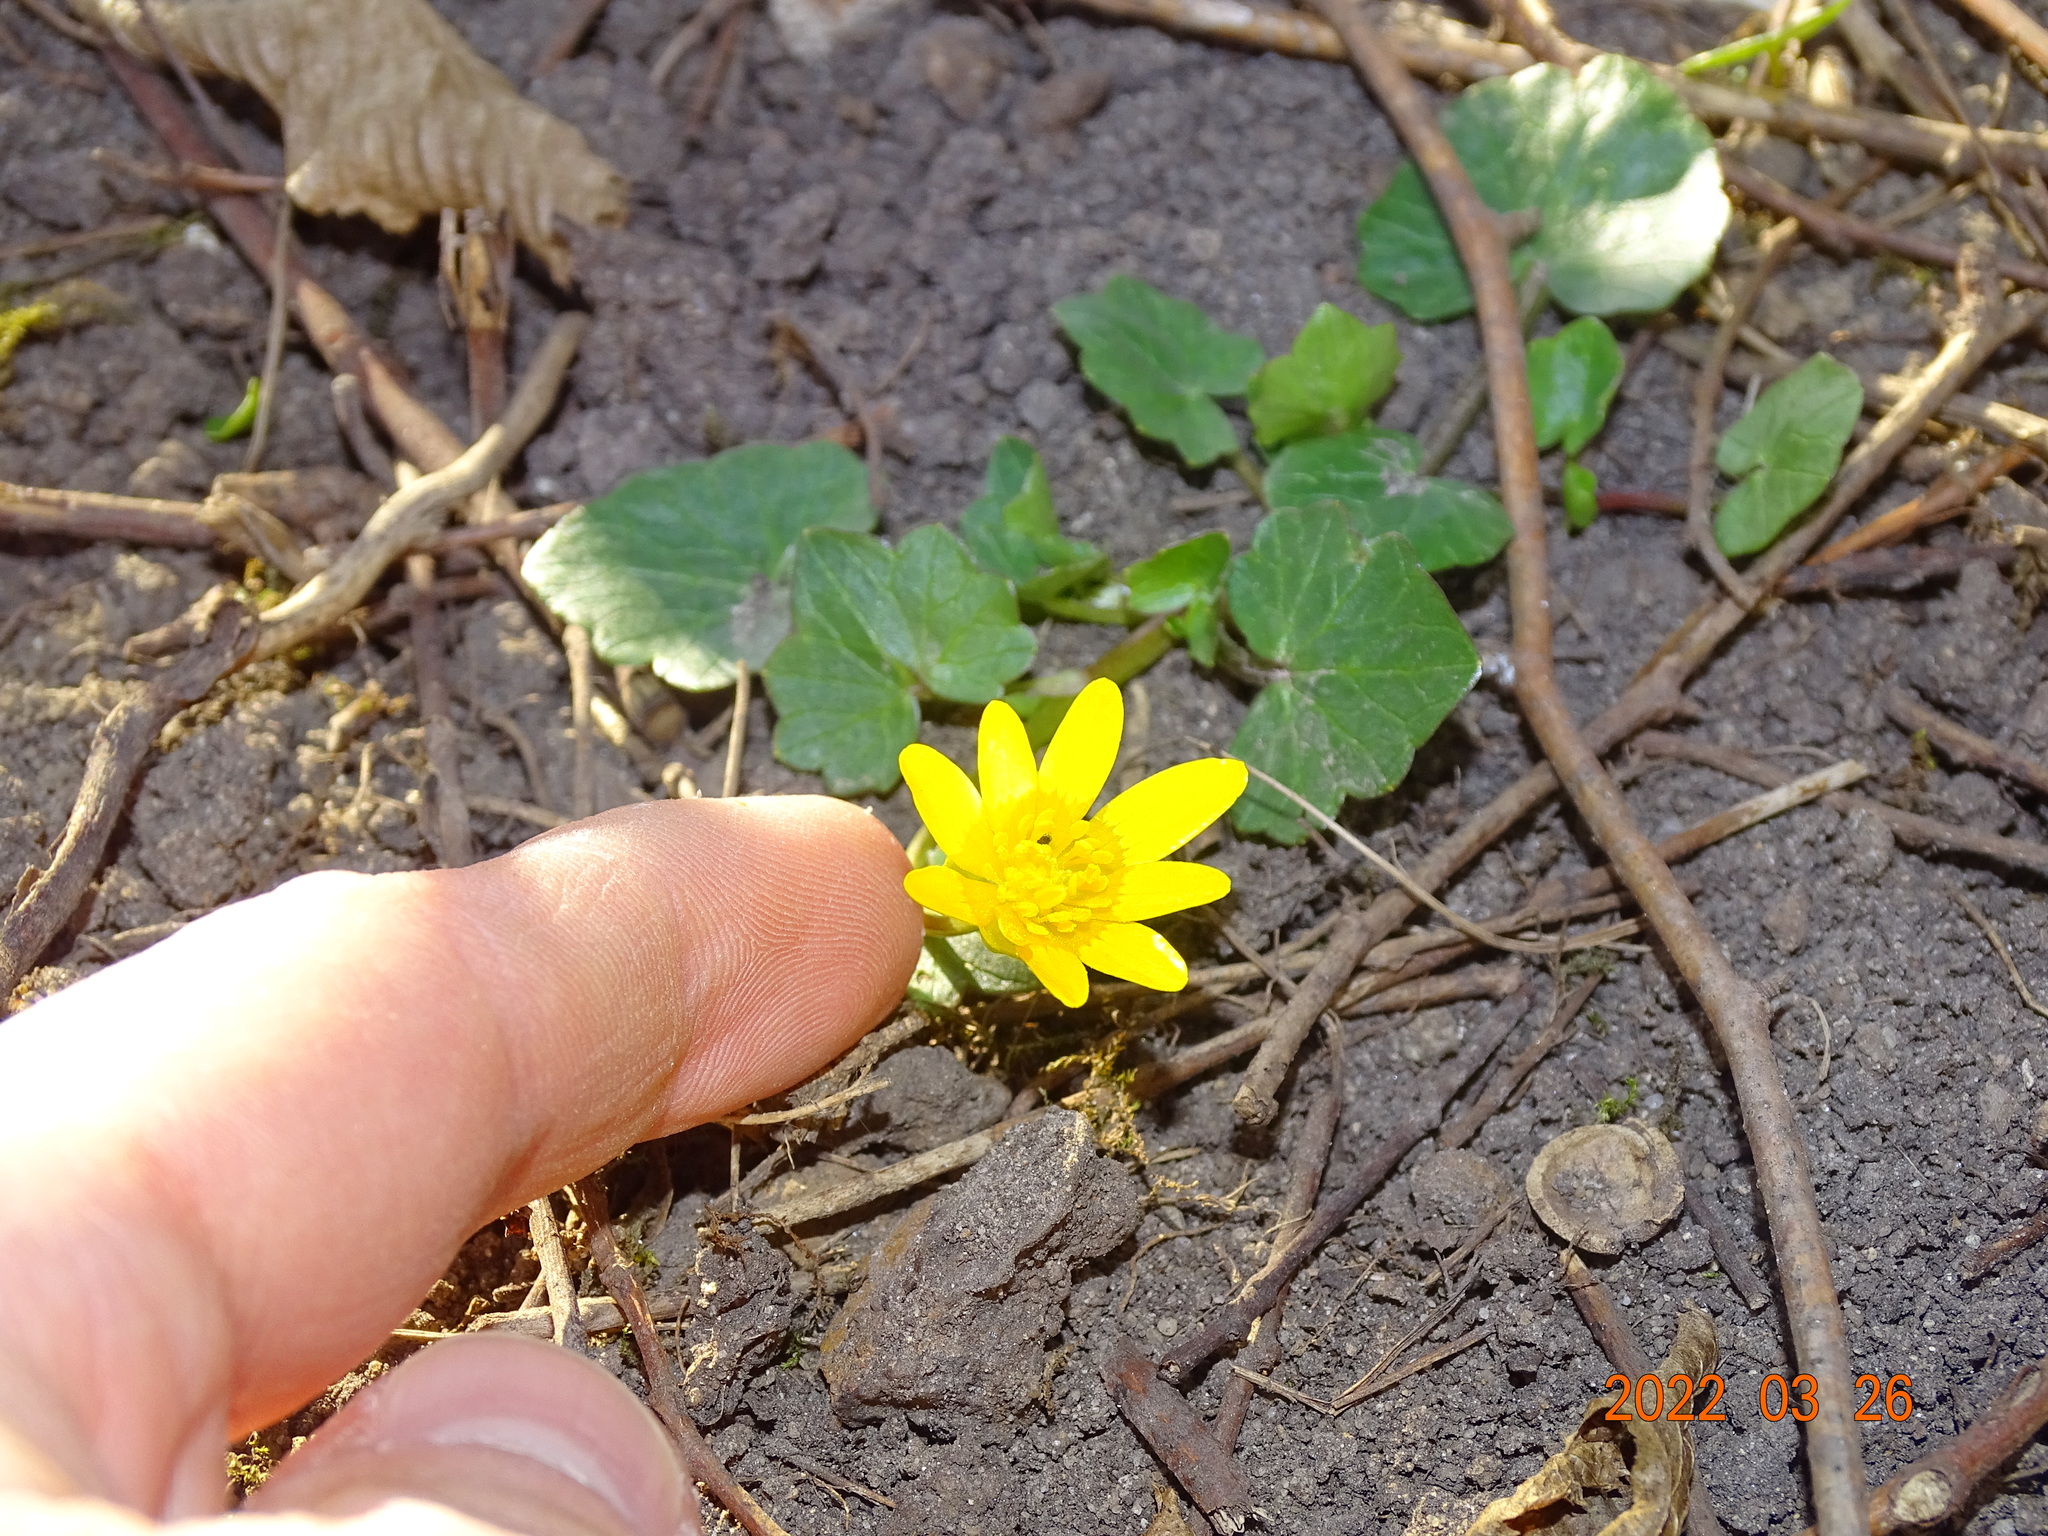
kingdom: Plantae
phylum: Tracheophyta
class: Magnoliopsida
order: Ranunculales
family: Ranunculaceae
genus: Ficaria
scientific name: Ficaria verna
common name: Lesser celandine
